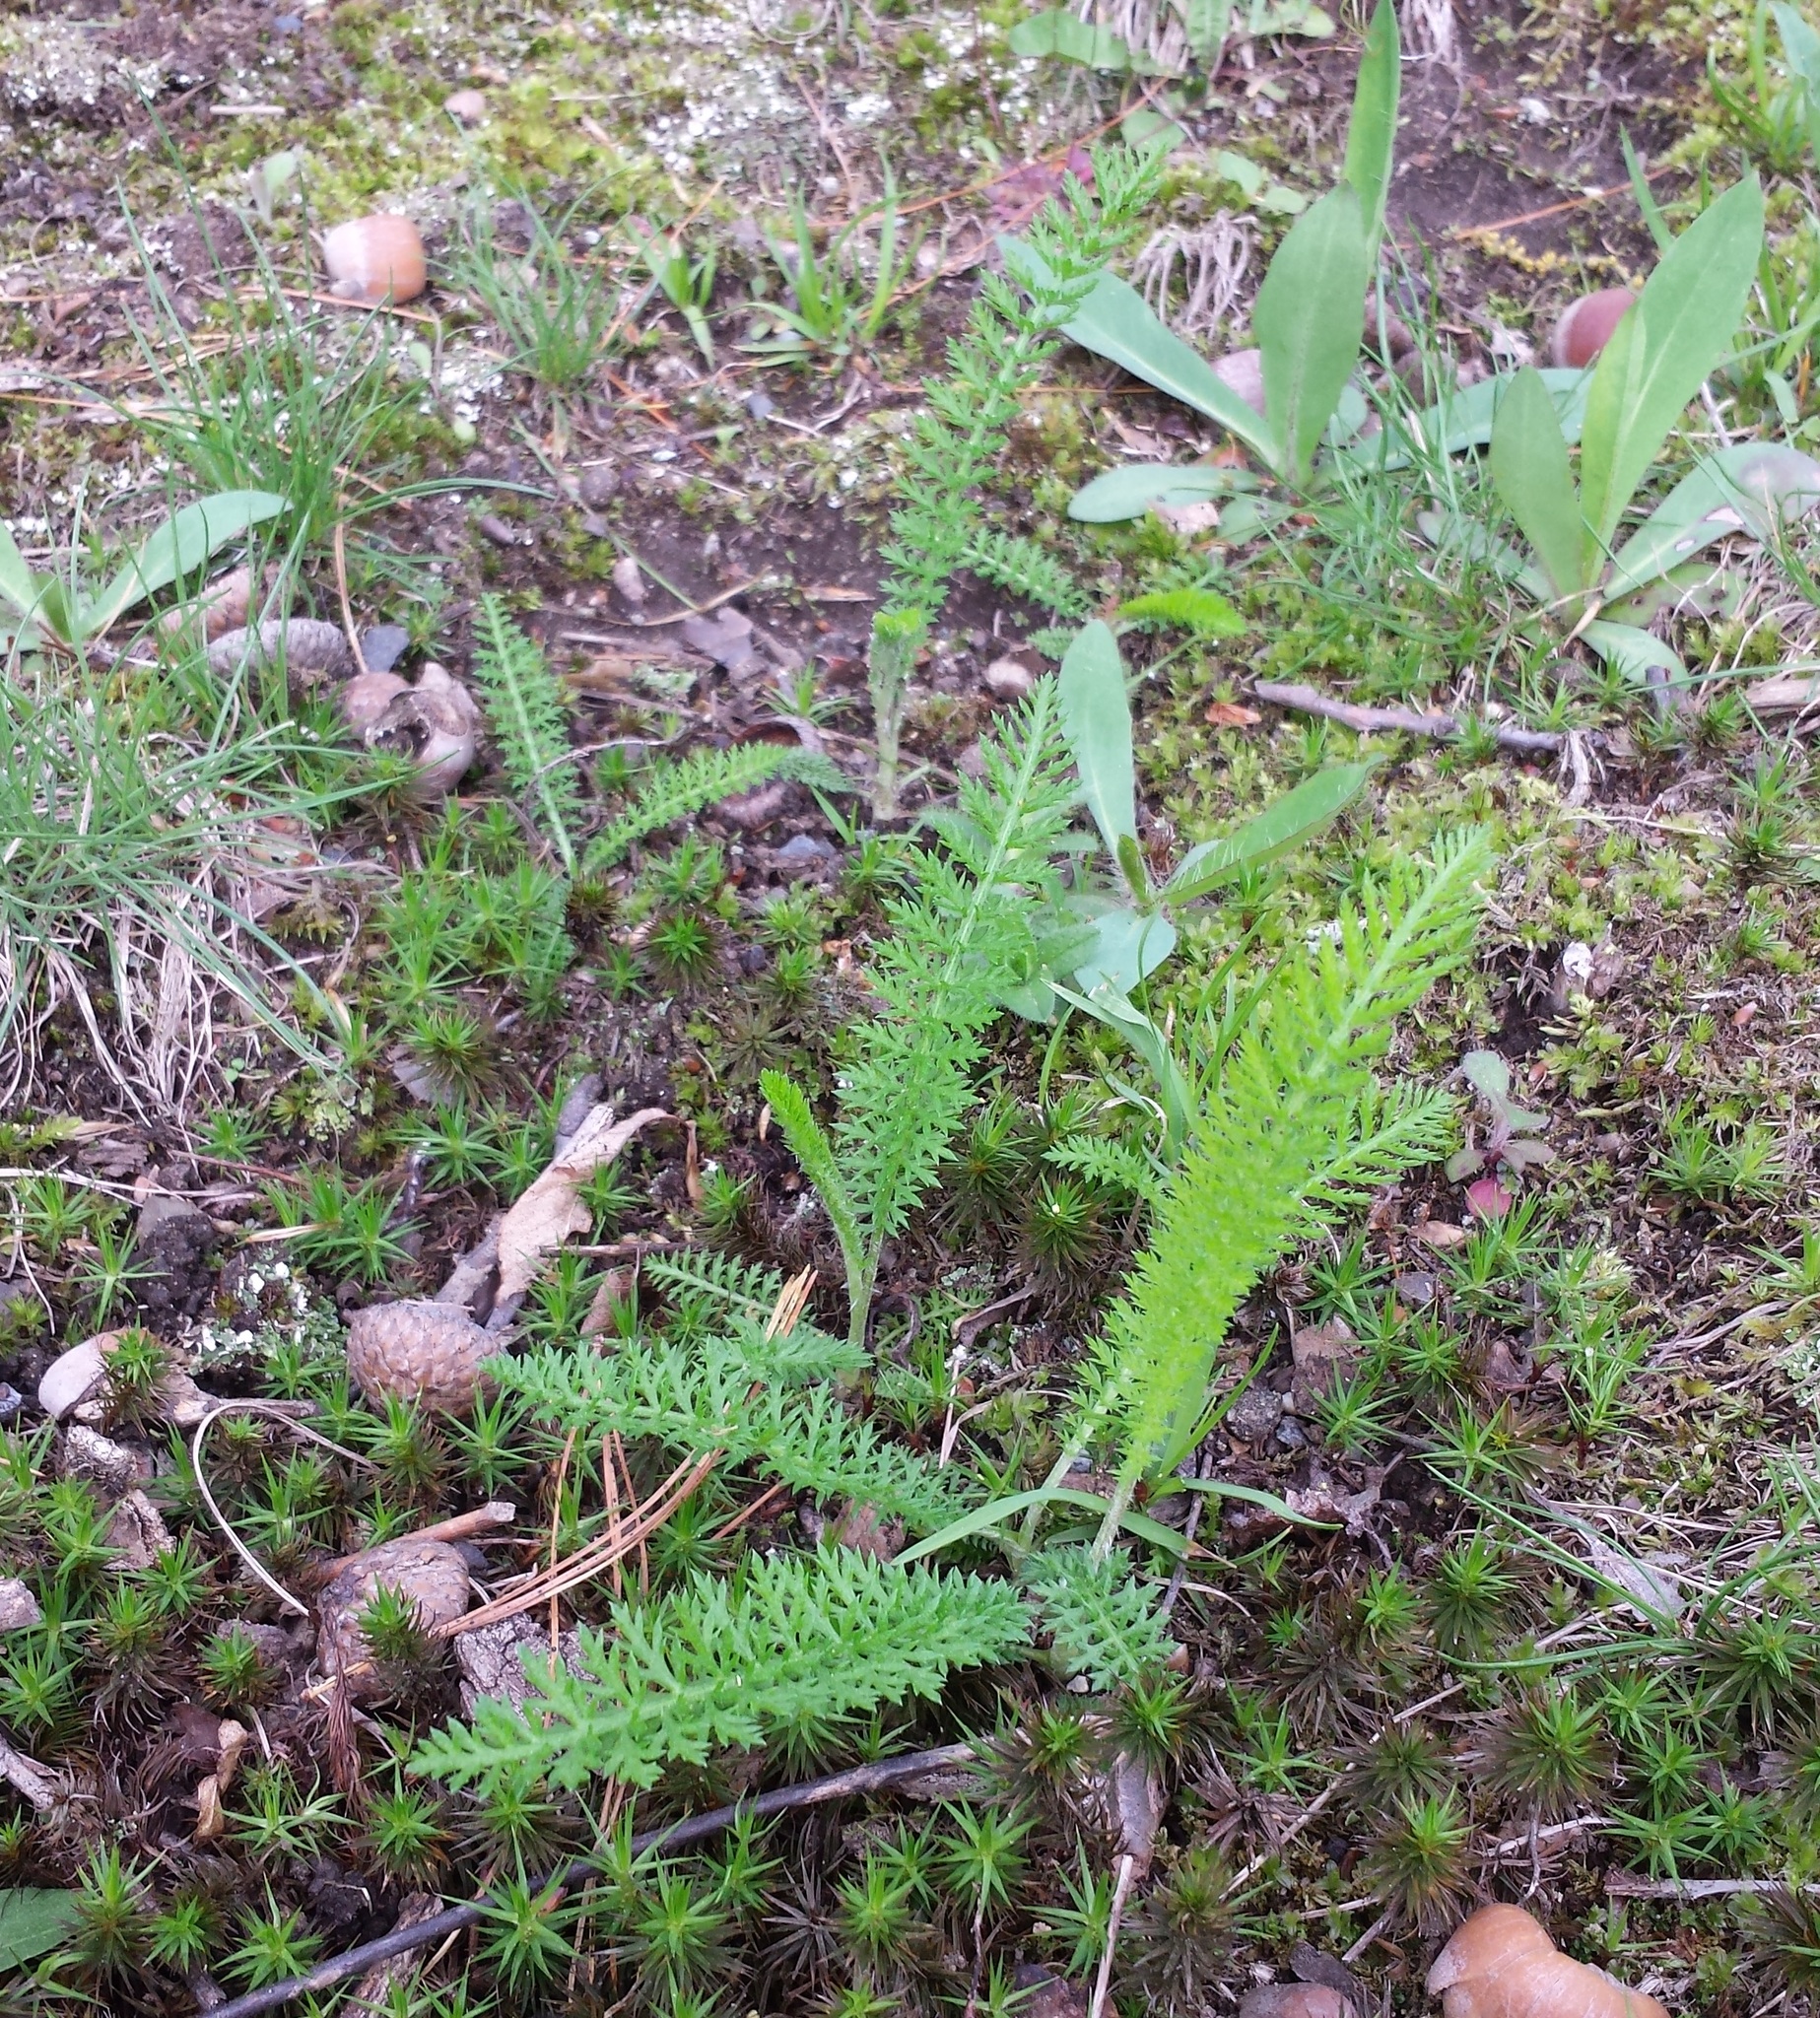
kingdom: Plantae
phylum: Tracheophyta
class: Magnoliopsida
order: Asterales
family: Asteraceae
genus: Achillea
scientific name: Achillea millefolium
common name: Yarrow
